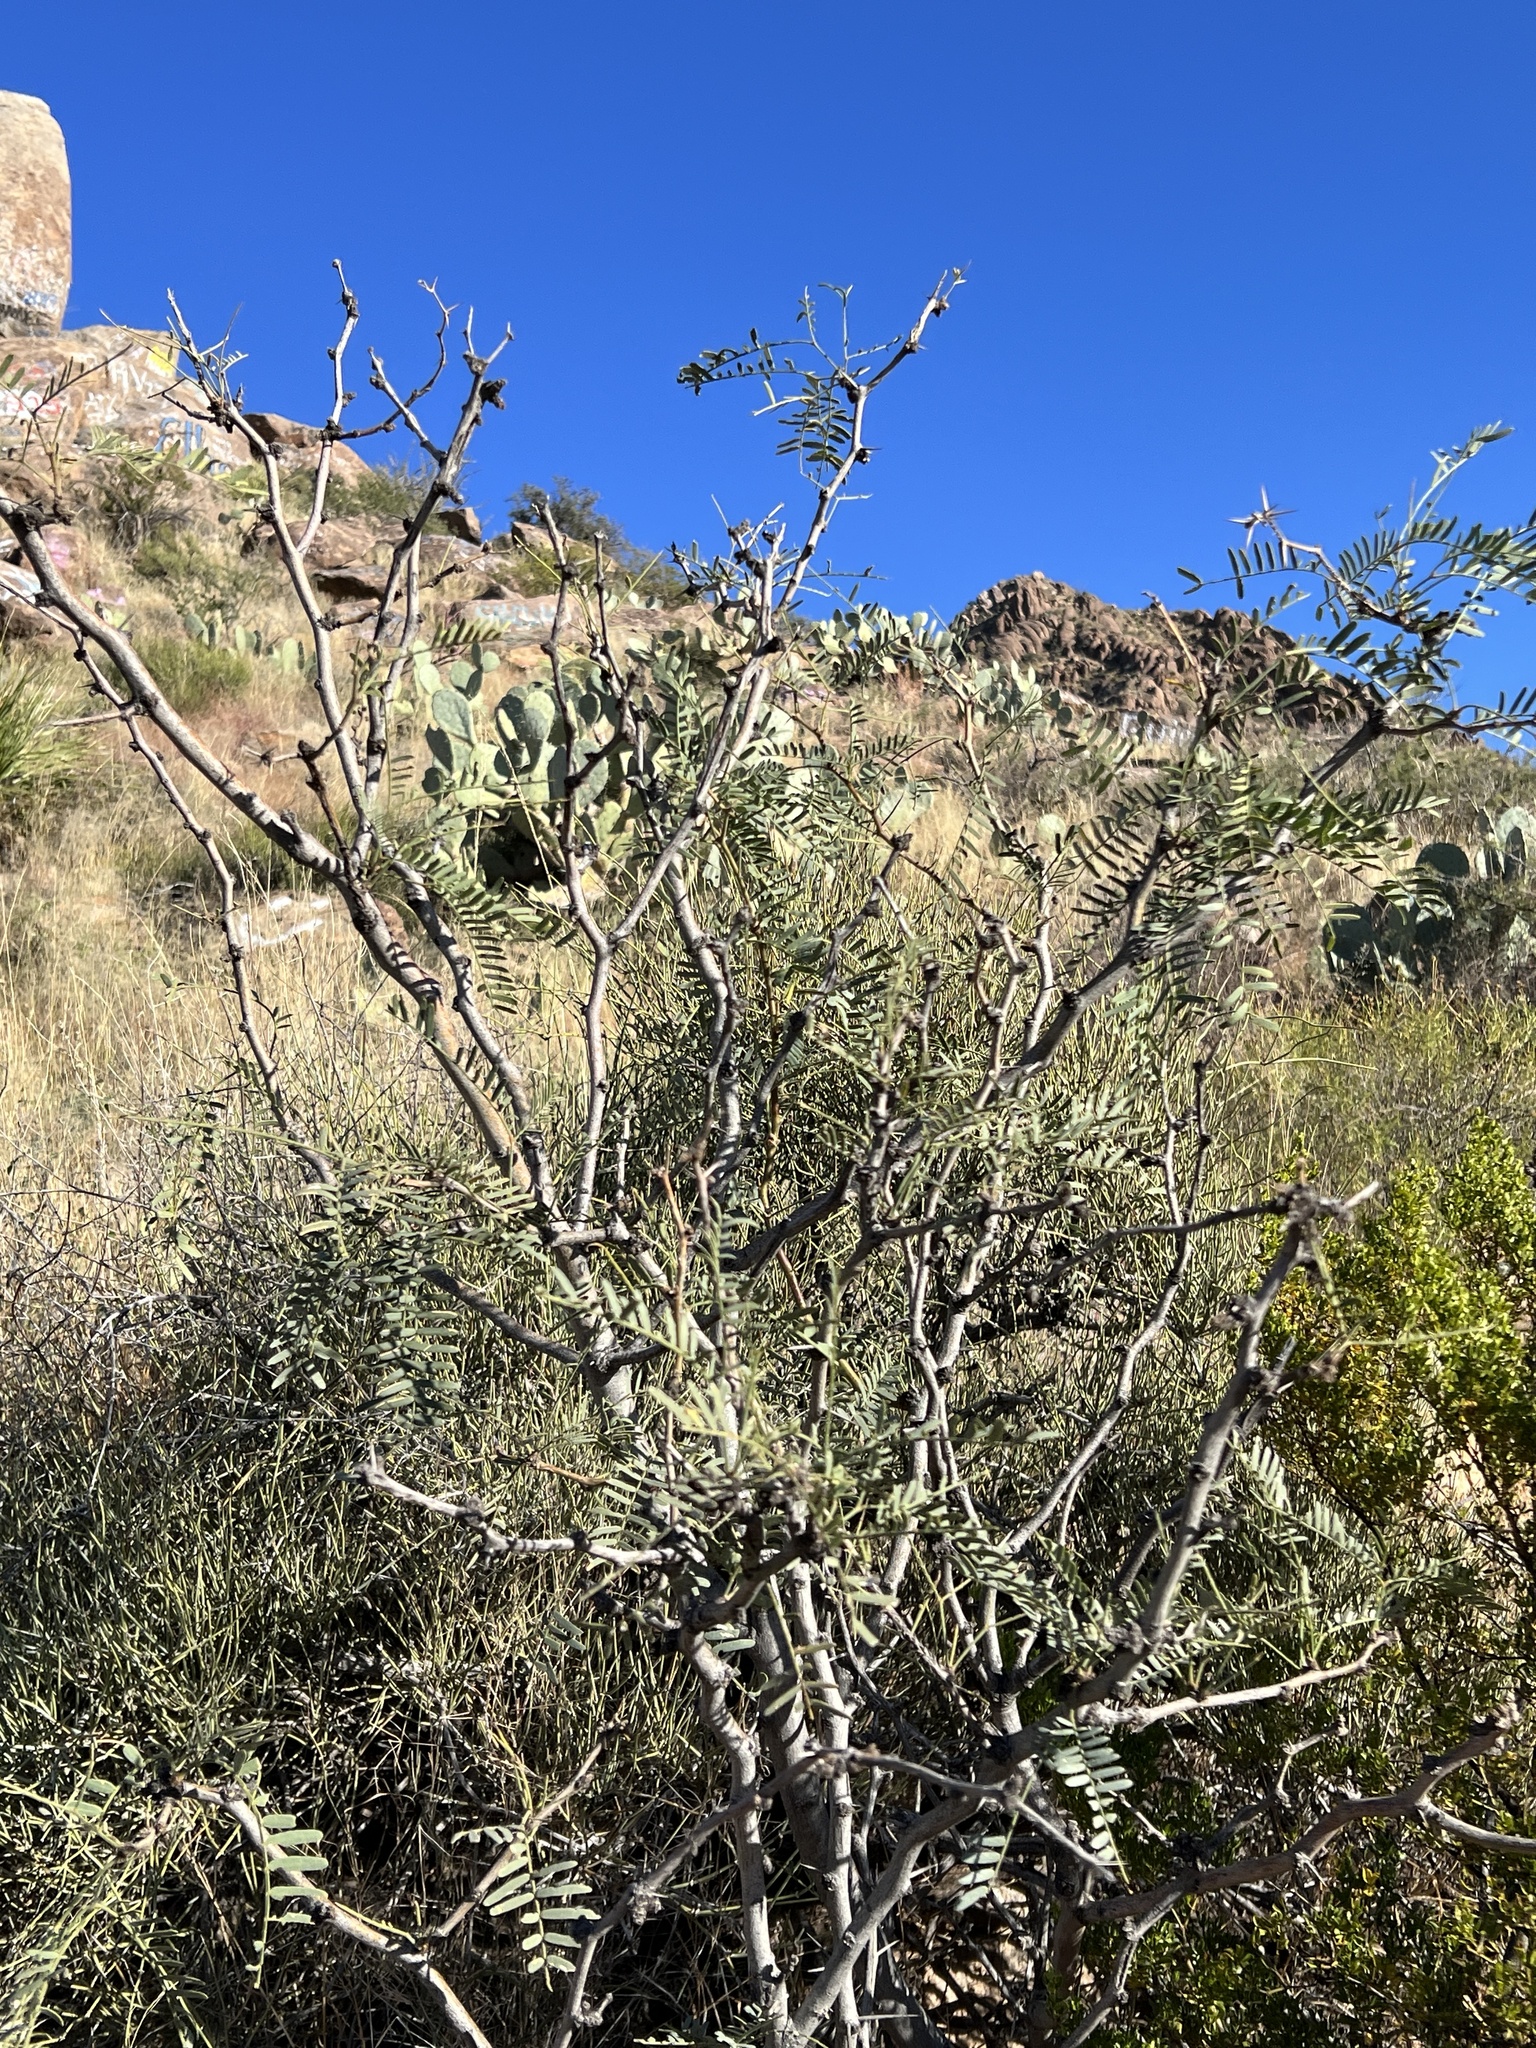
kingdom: Plantae
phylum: Tracheophyta
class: Magnoliopsida
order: Fabales
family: Fabaceae
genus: Prosopis
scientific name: Prosopis pubescens
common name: Screw-bean
